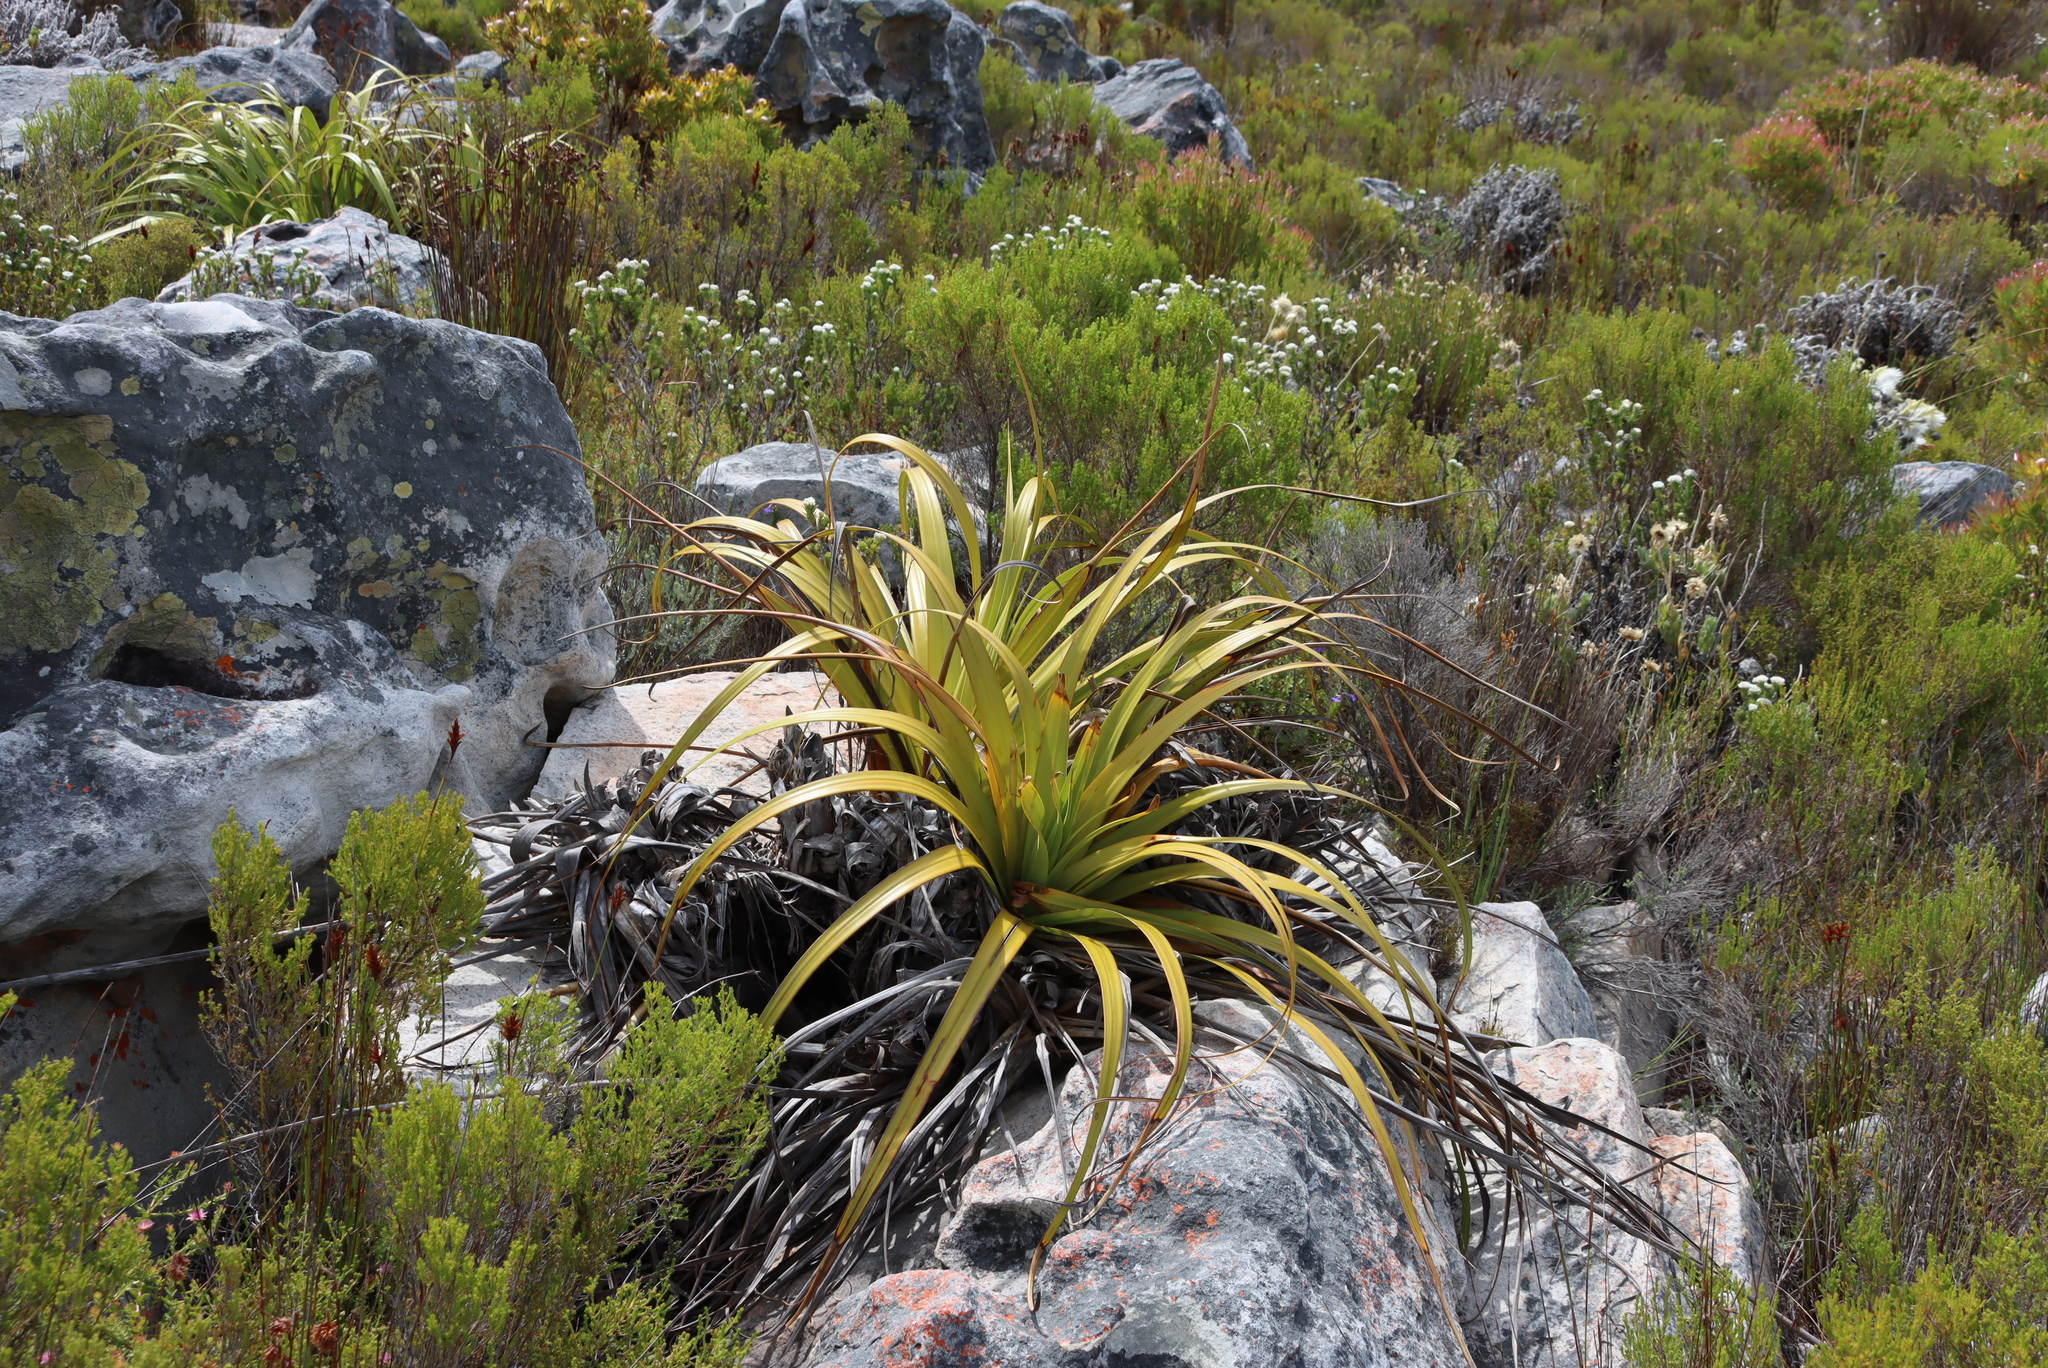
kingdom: Plantae
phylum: Tracheophyta
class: Liliopsida
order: Poales
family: Cyperaceae
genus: Tetraria
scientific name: Tetraria thermalis
